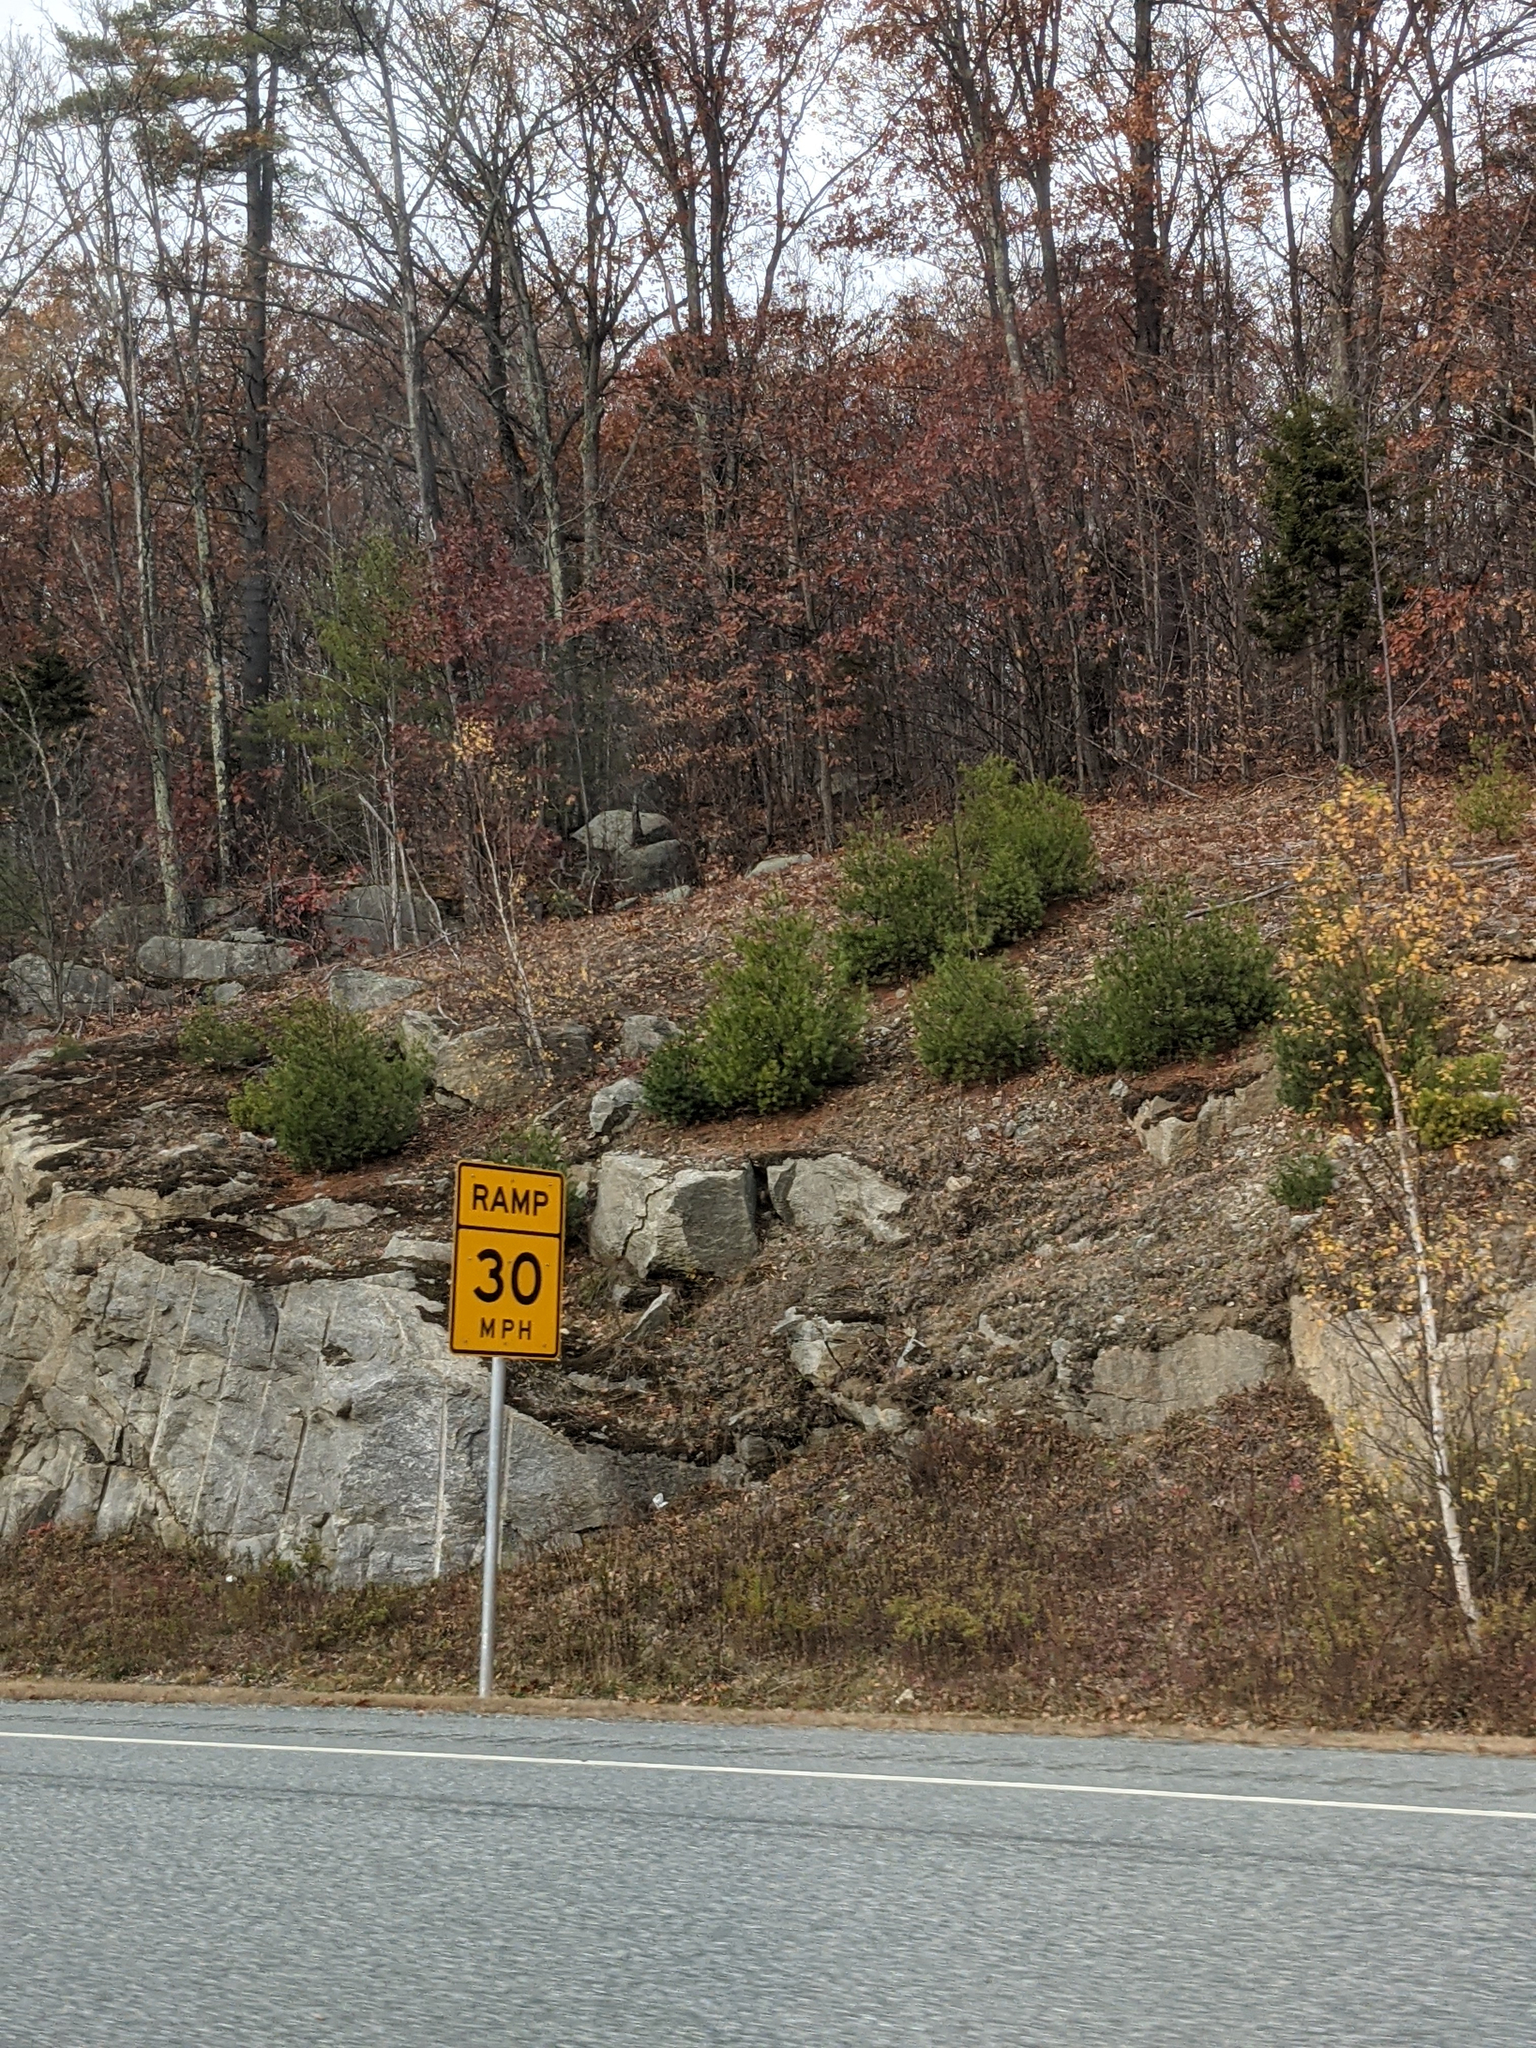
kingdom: Plantae
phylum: Tracheophyta
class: Pinopsida
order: Pinales
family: Pinaceae
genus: Pinus
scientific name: Pinus strobus
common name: Weymouth pine
